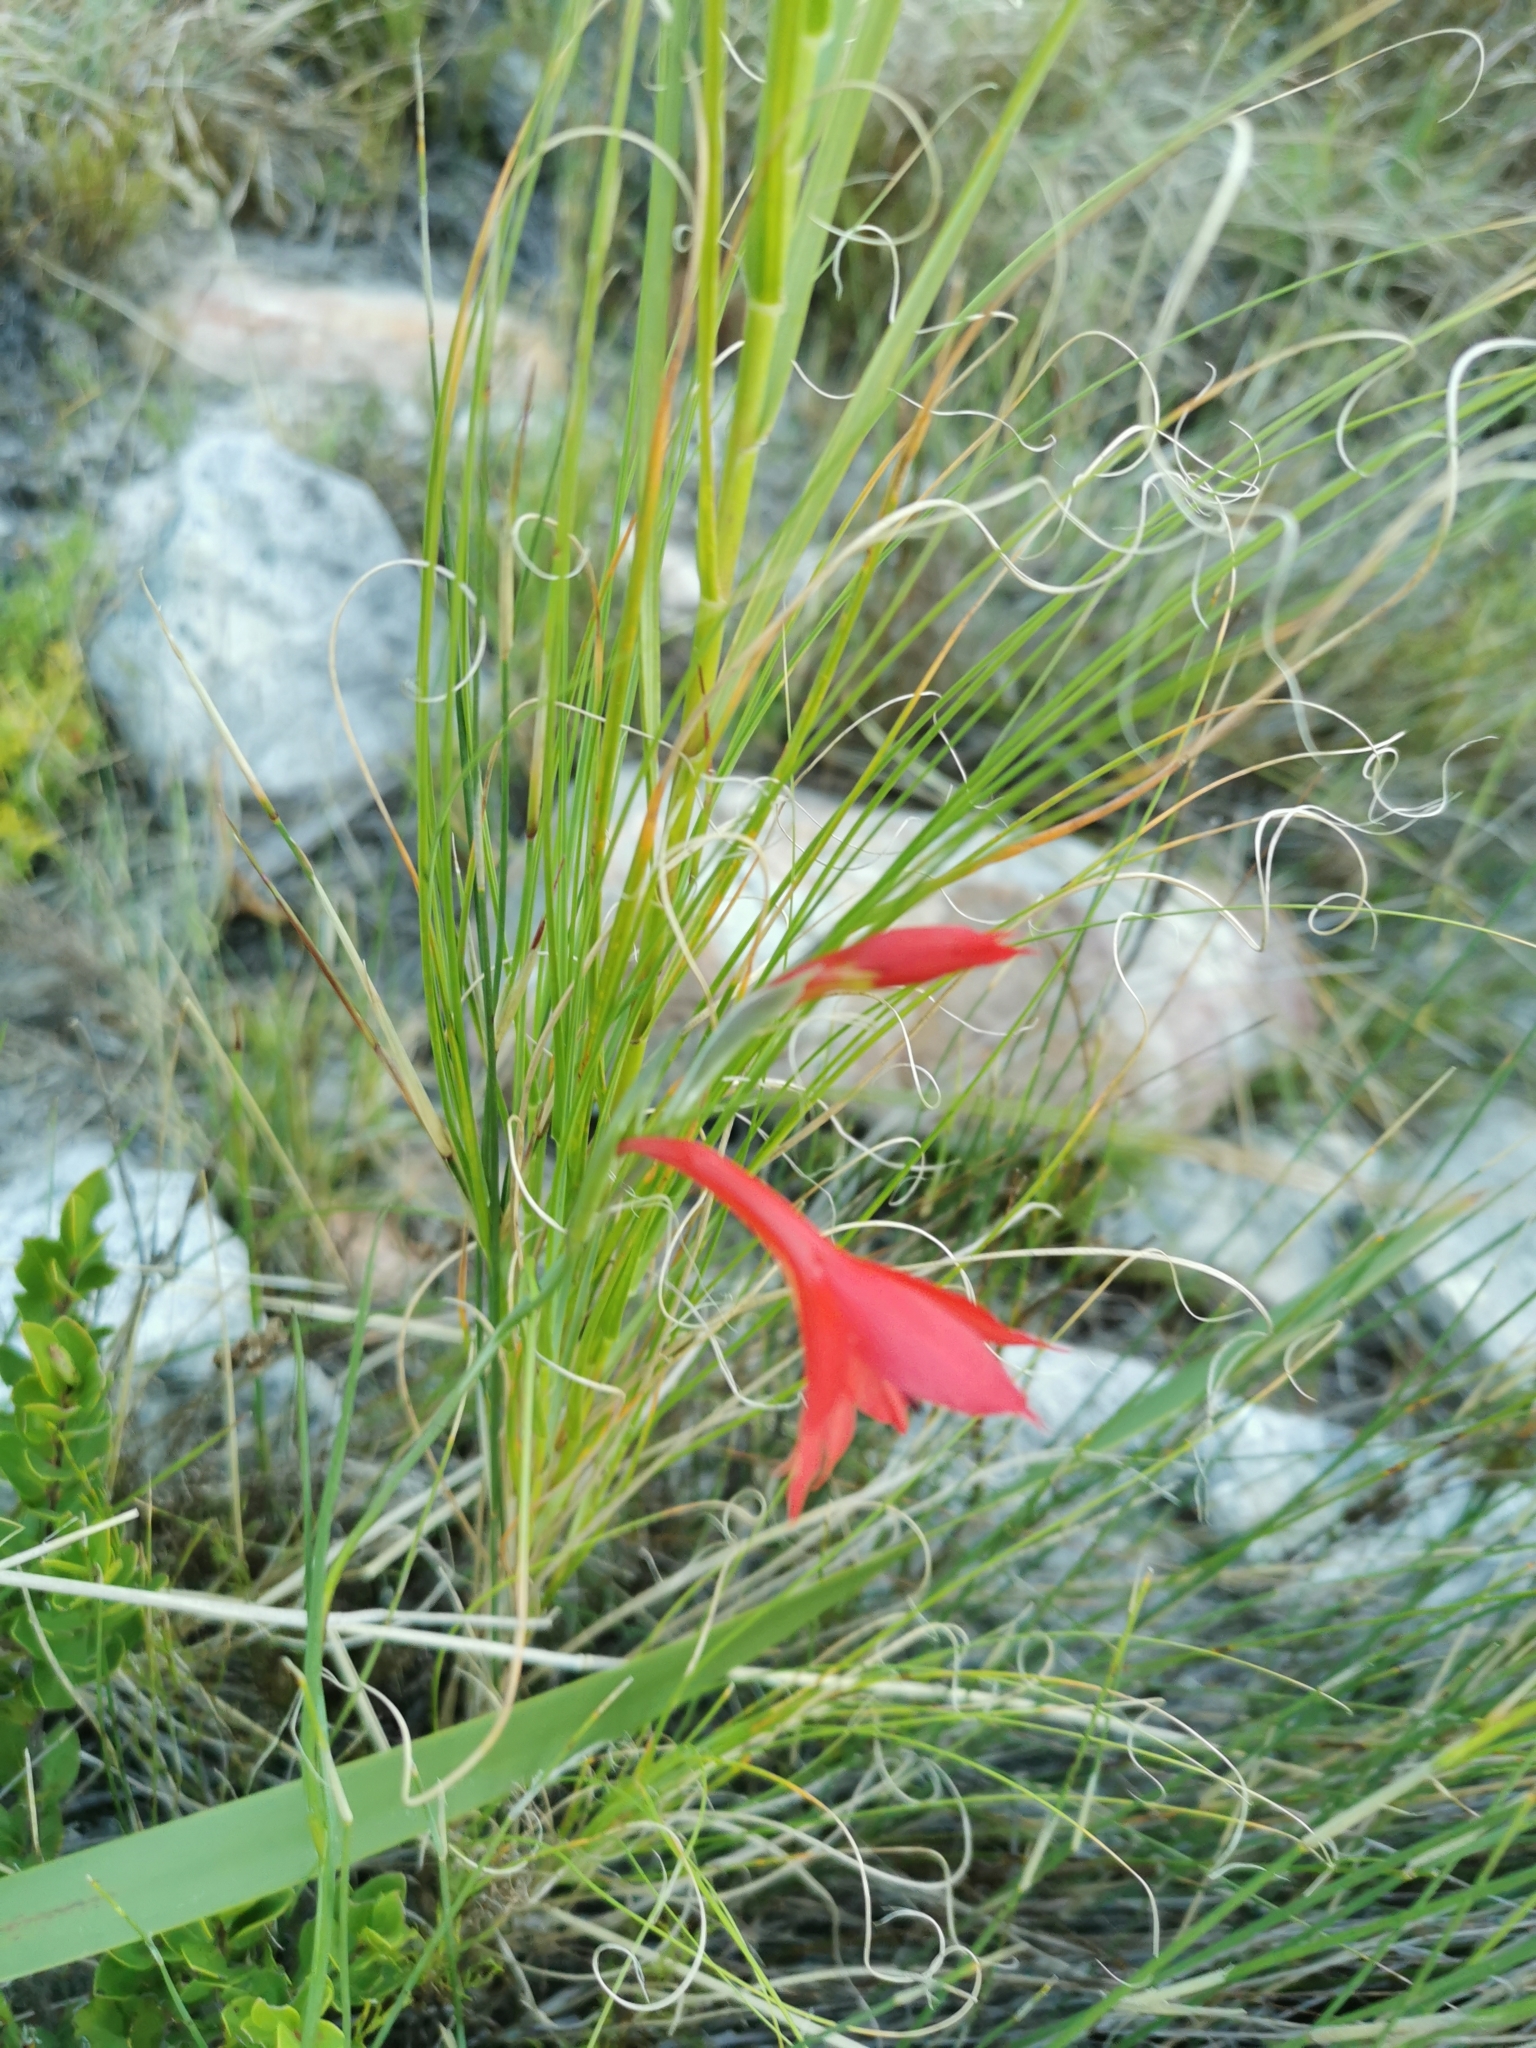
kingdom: Plantae
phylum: Tracheophyta
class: Liliopsida
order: Asparagales
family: Iridaceae
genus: Gladiolus
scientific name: Gladiolus priorii
